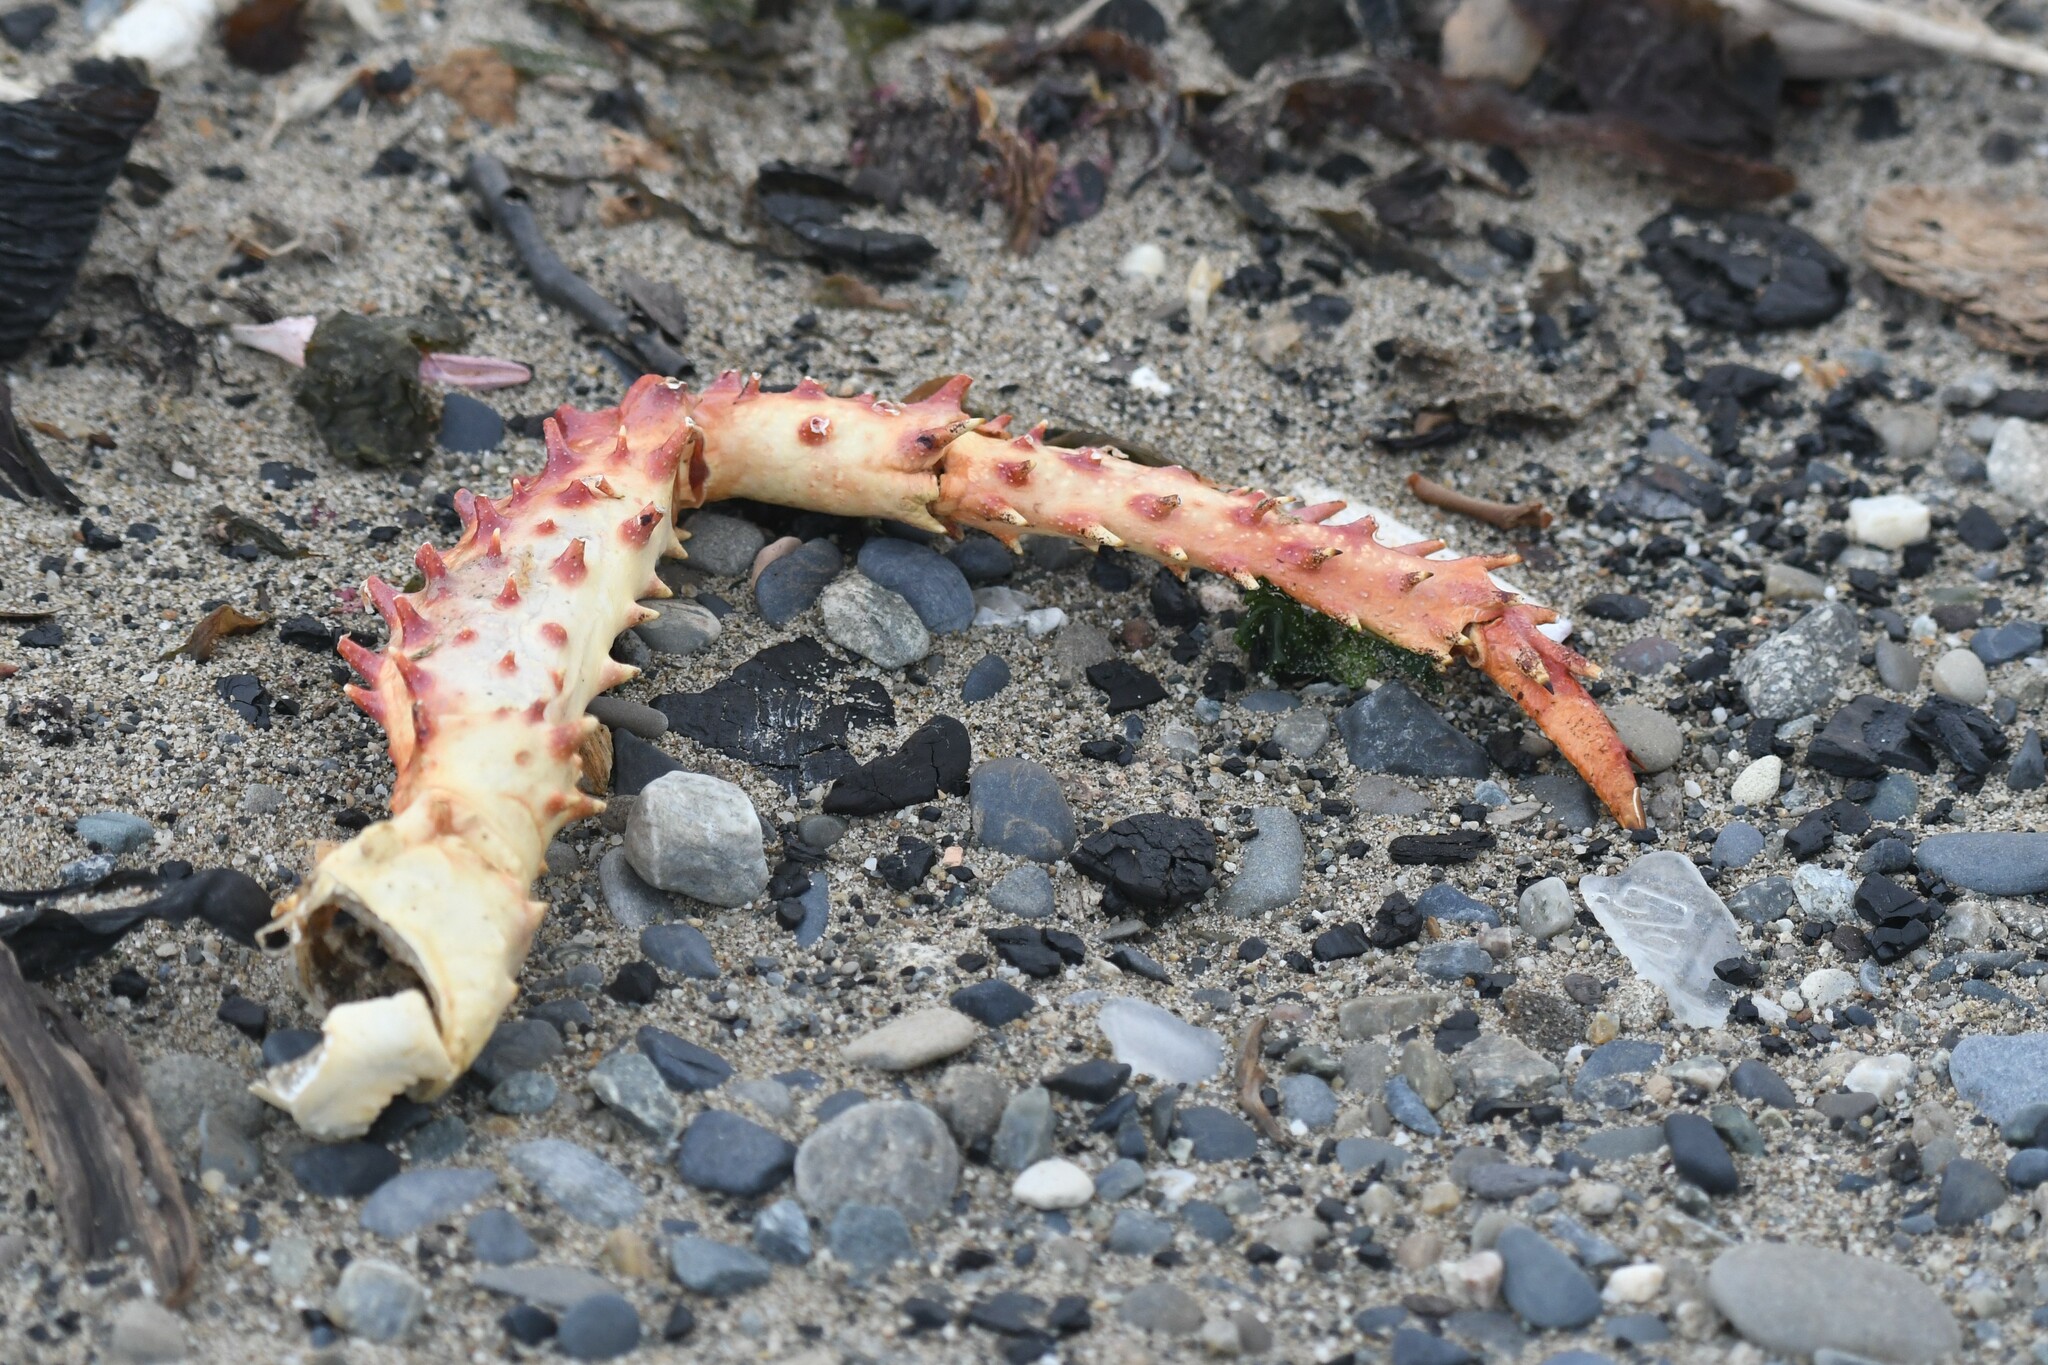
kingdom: Animalia
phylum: Arthropoda
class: Malacostraca
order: Decapoda
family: Lithodidae
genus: Lithodes
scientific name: Lithodes santolla
